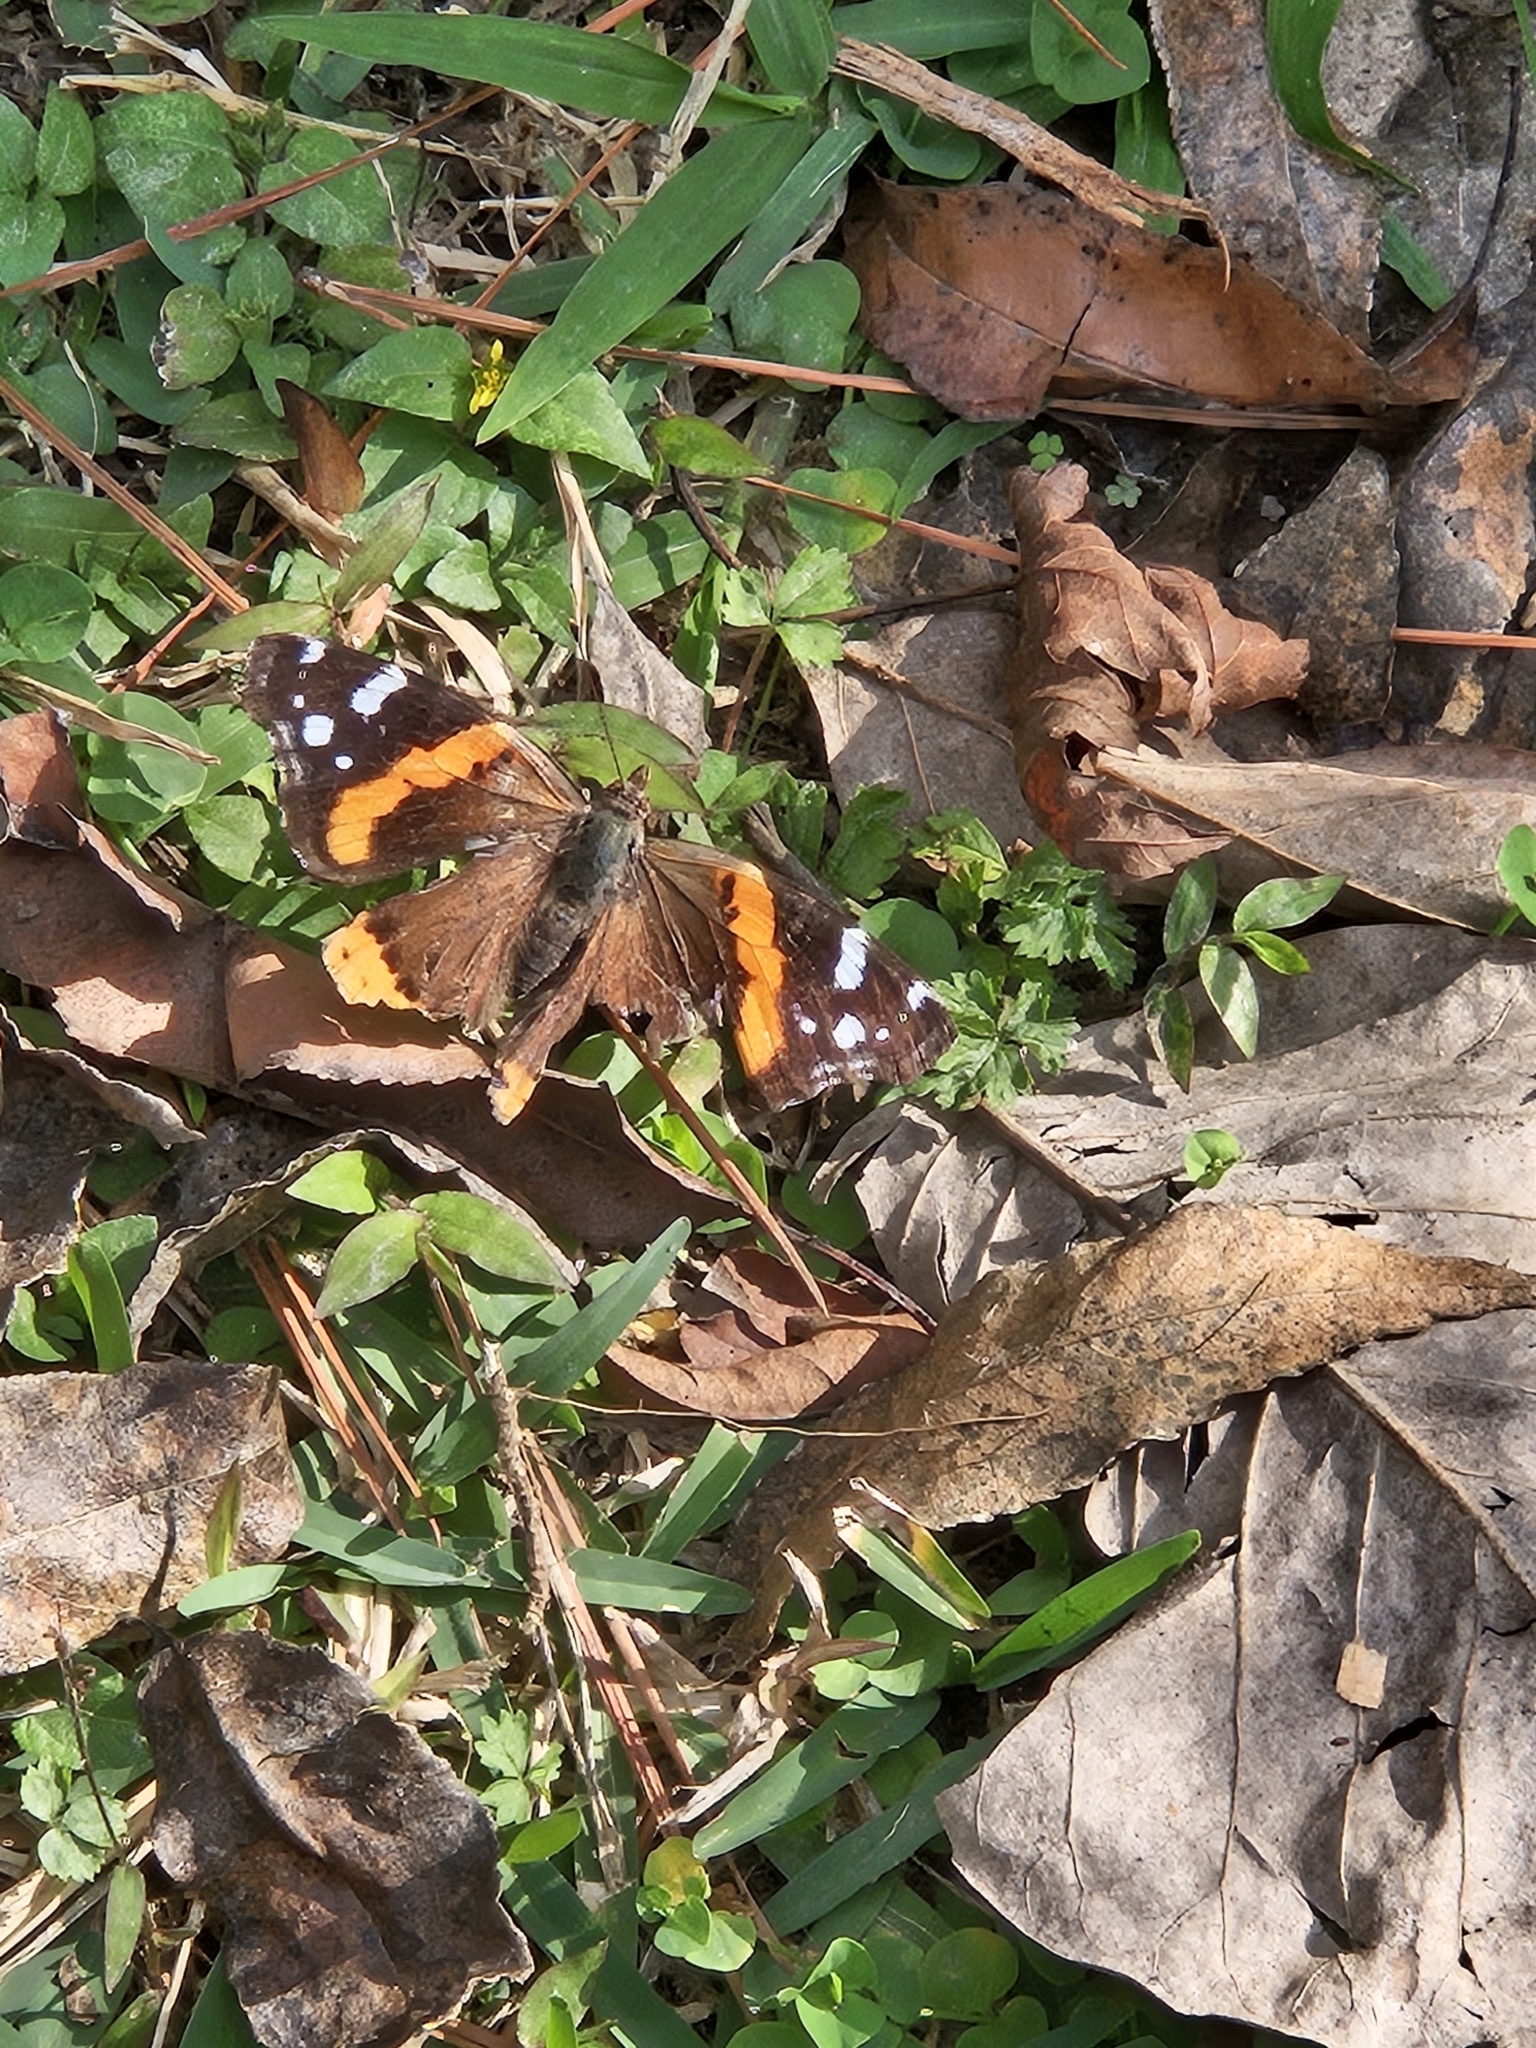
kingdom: Animalia
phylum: Arthropoda
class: Insecta
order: Lepidoptera
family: Nymphalidae
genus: Vanessa
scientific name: Vanessa atalanta
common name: Red admiral
